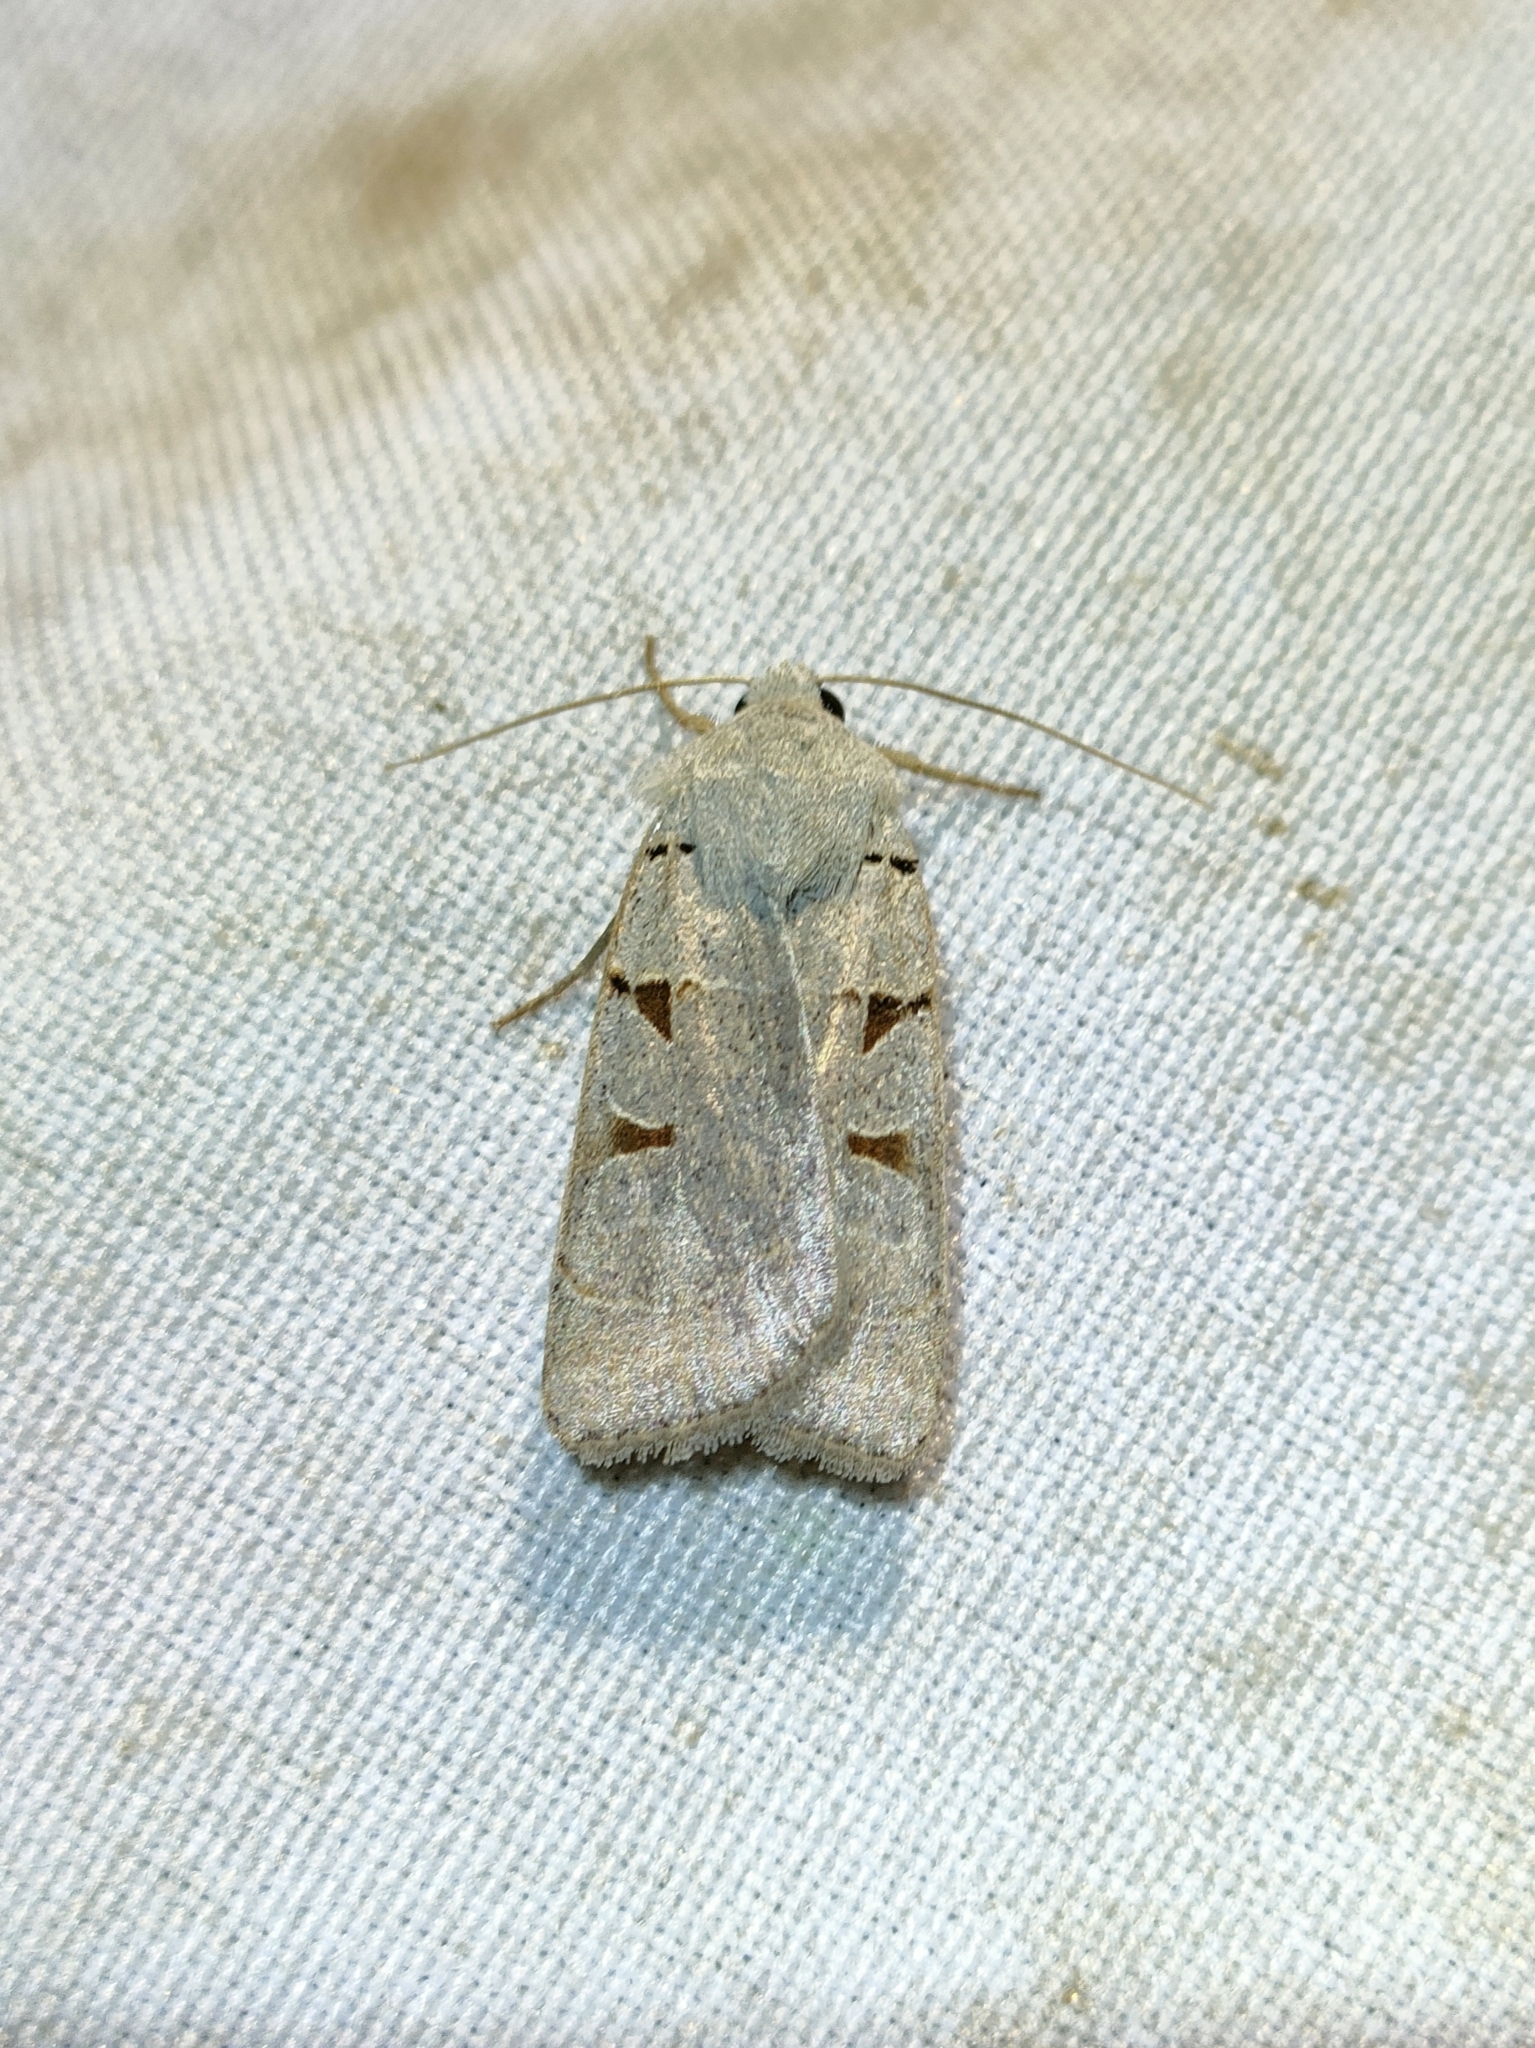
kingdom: Animalia
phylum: Arthropoda
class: Insecta
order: Lepidoptera
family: Noctuidae
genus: Eugnorisma
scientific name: Eugnorisma glareosa
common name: Autumnal rustic
